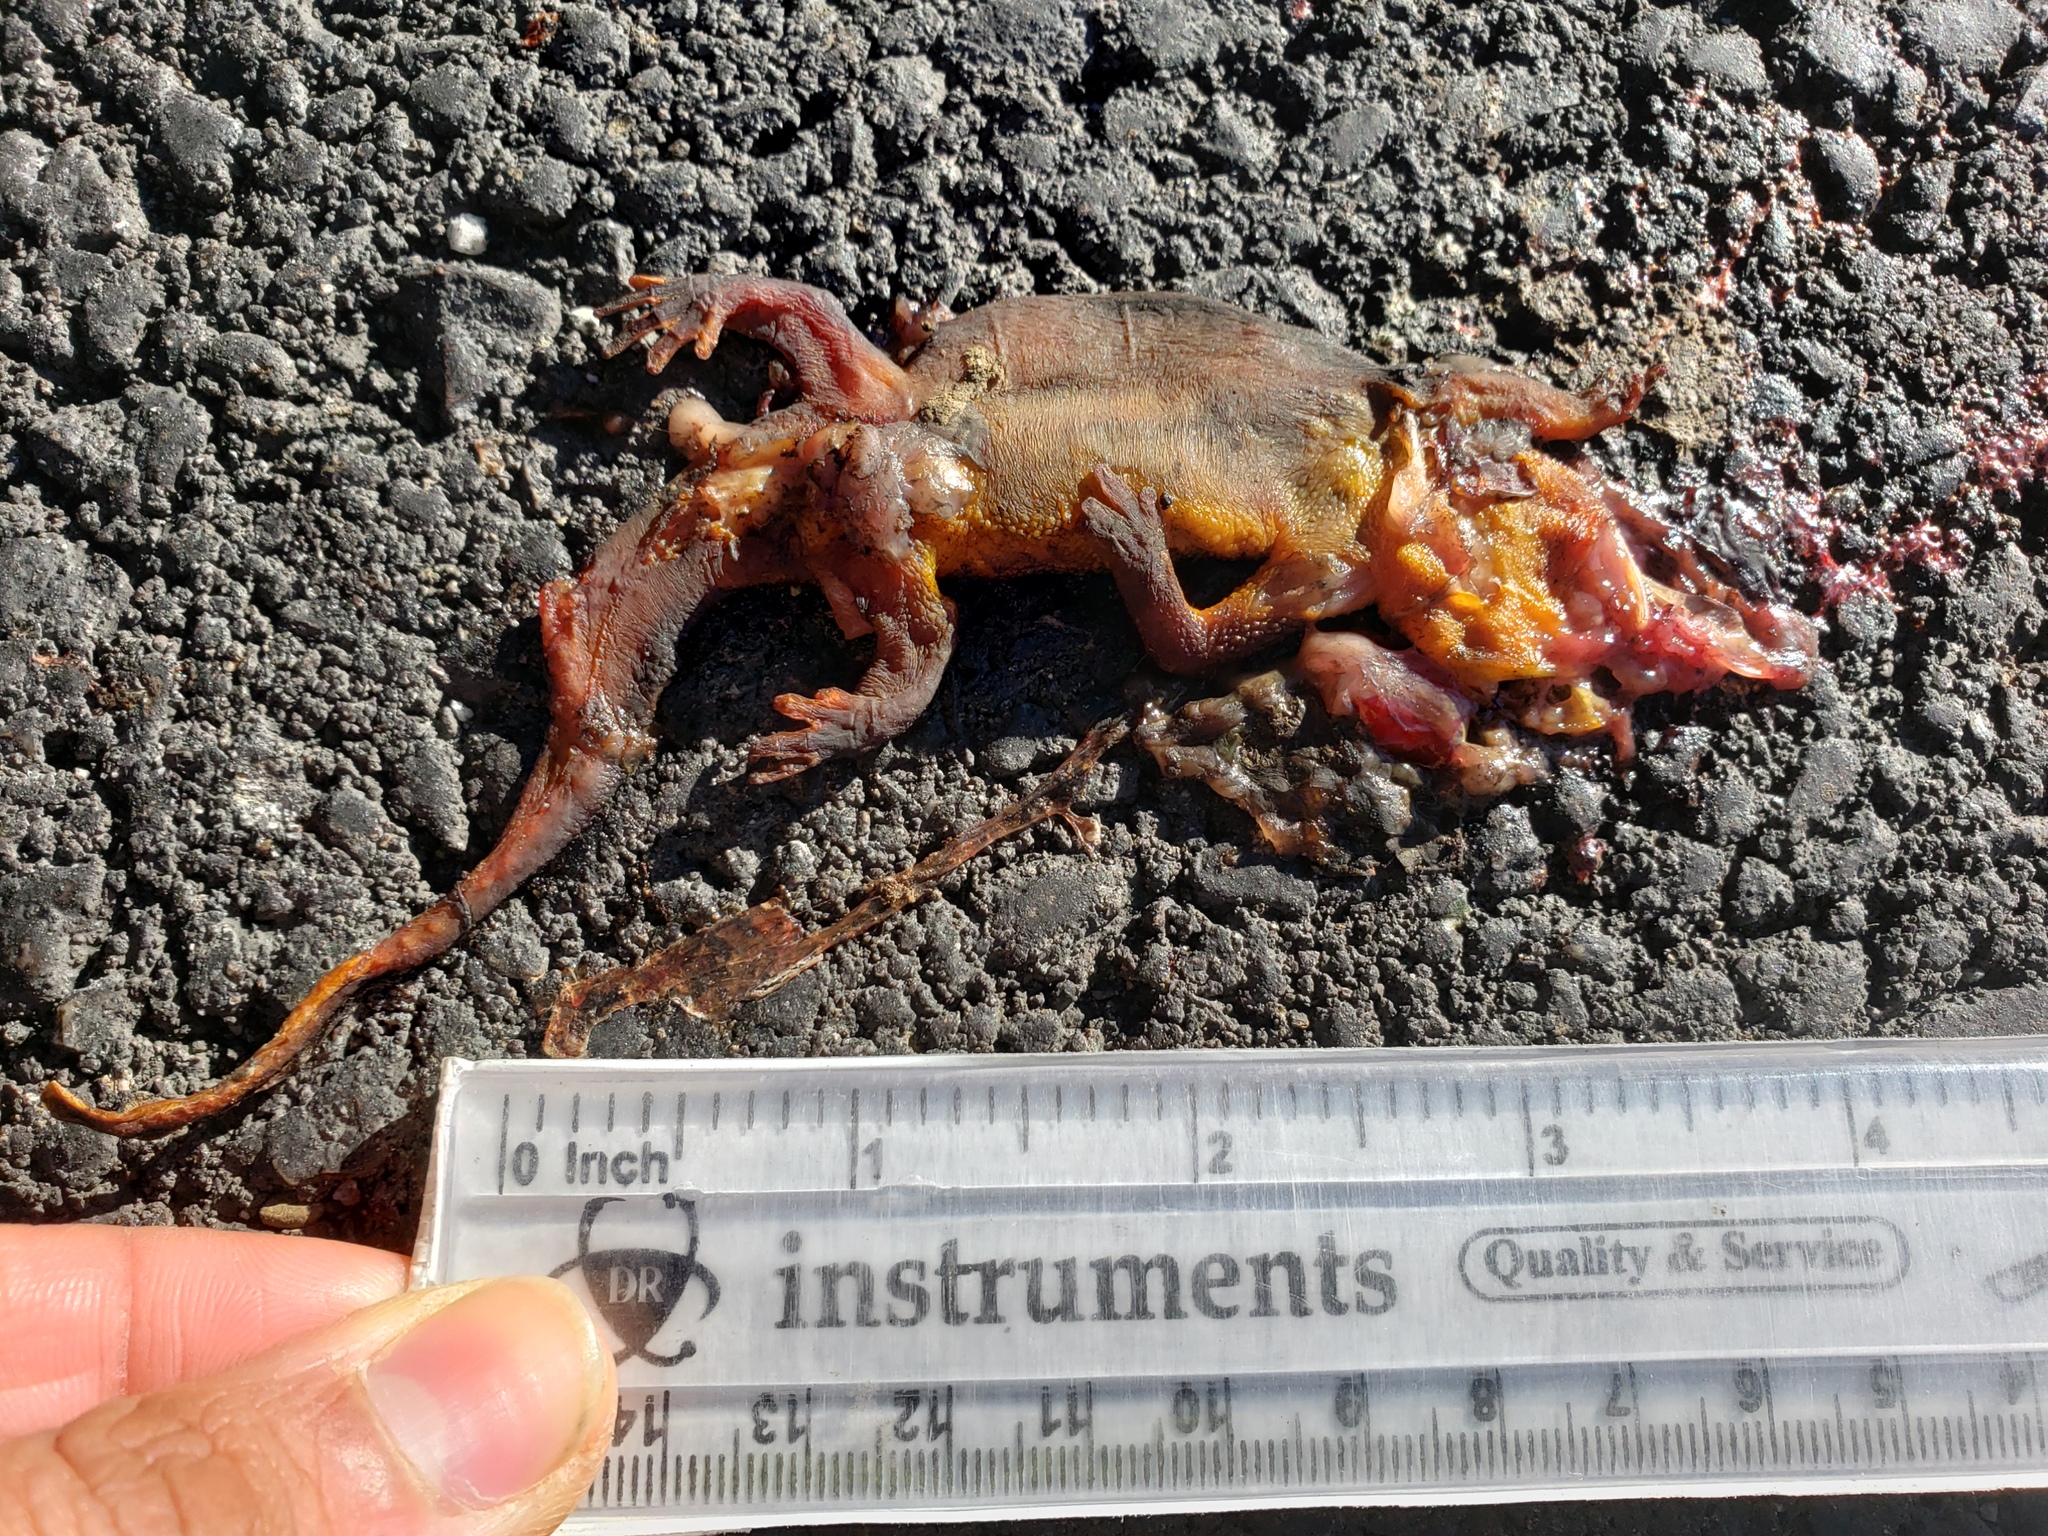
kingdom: Animalia
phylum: Chordata
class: Amphibia
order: Caudata
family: Salamandridae
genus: Taricha
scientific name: Taricha
